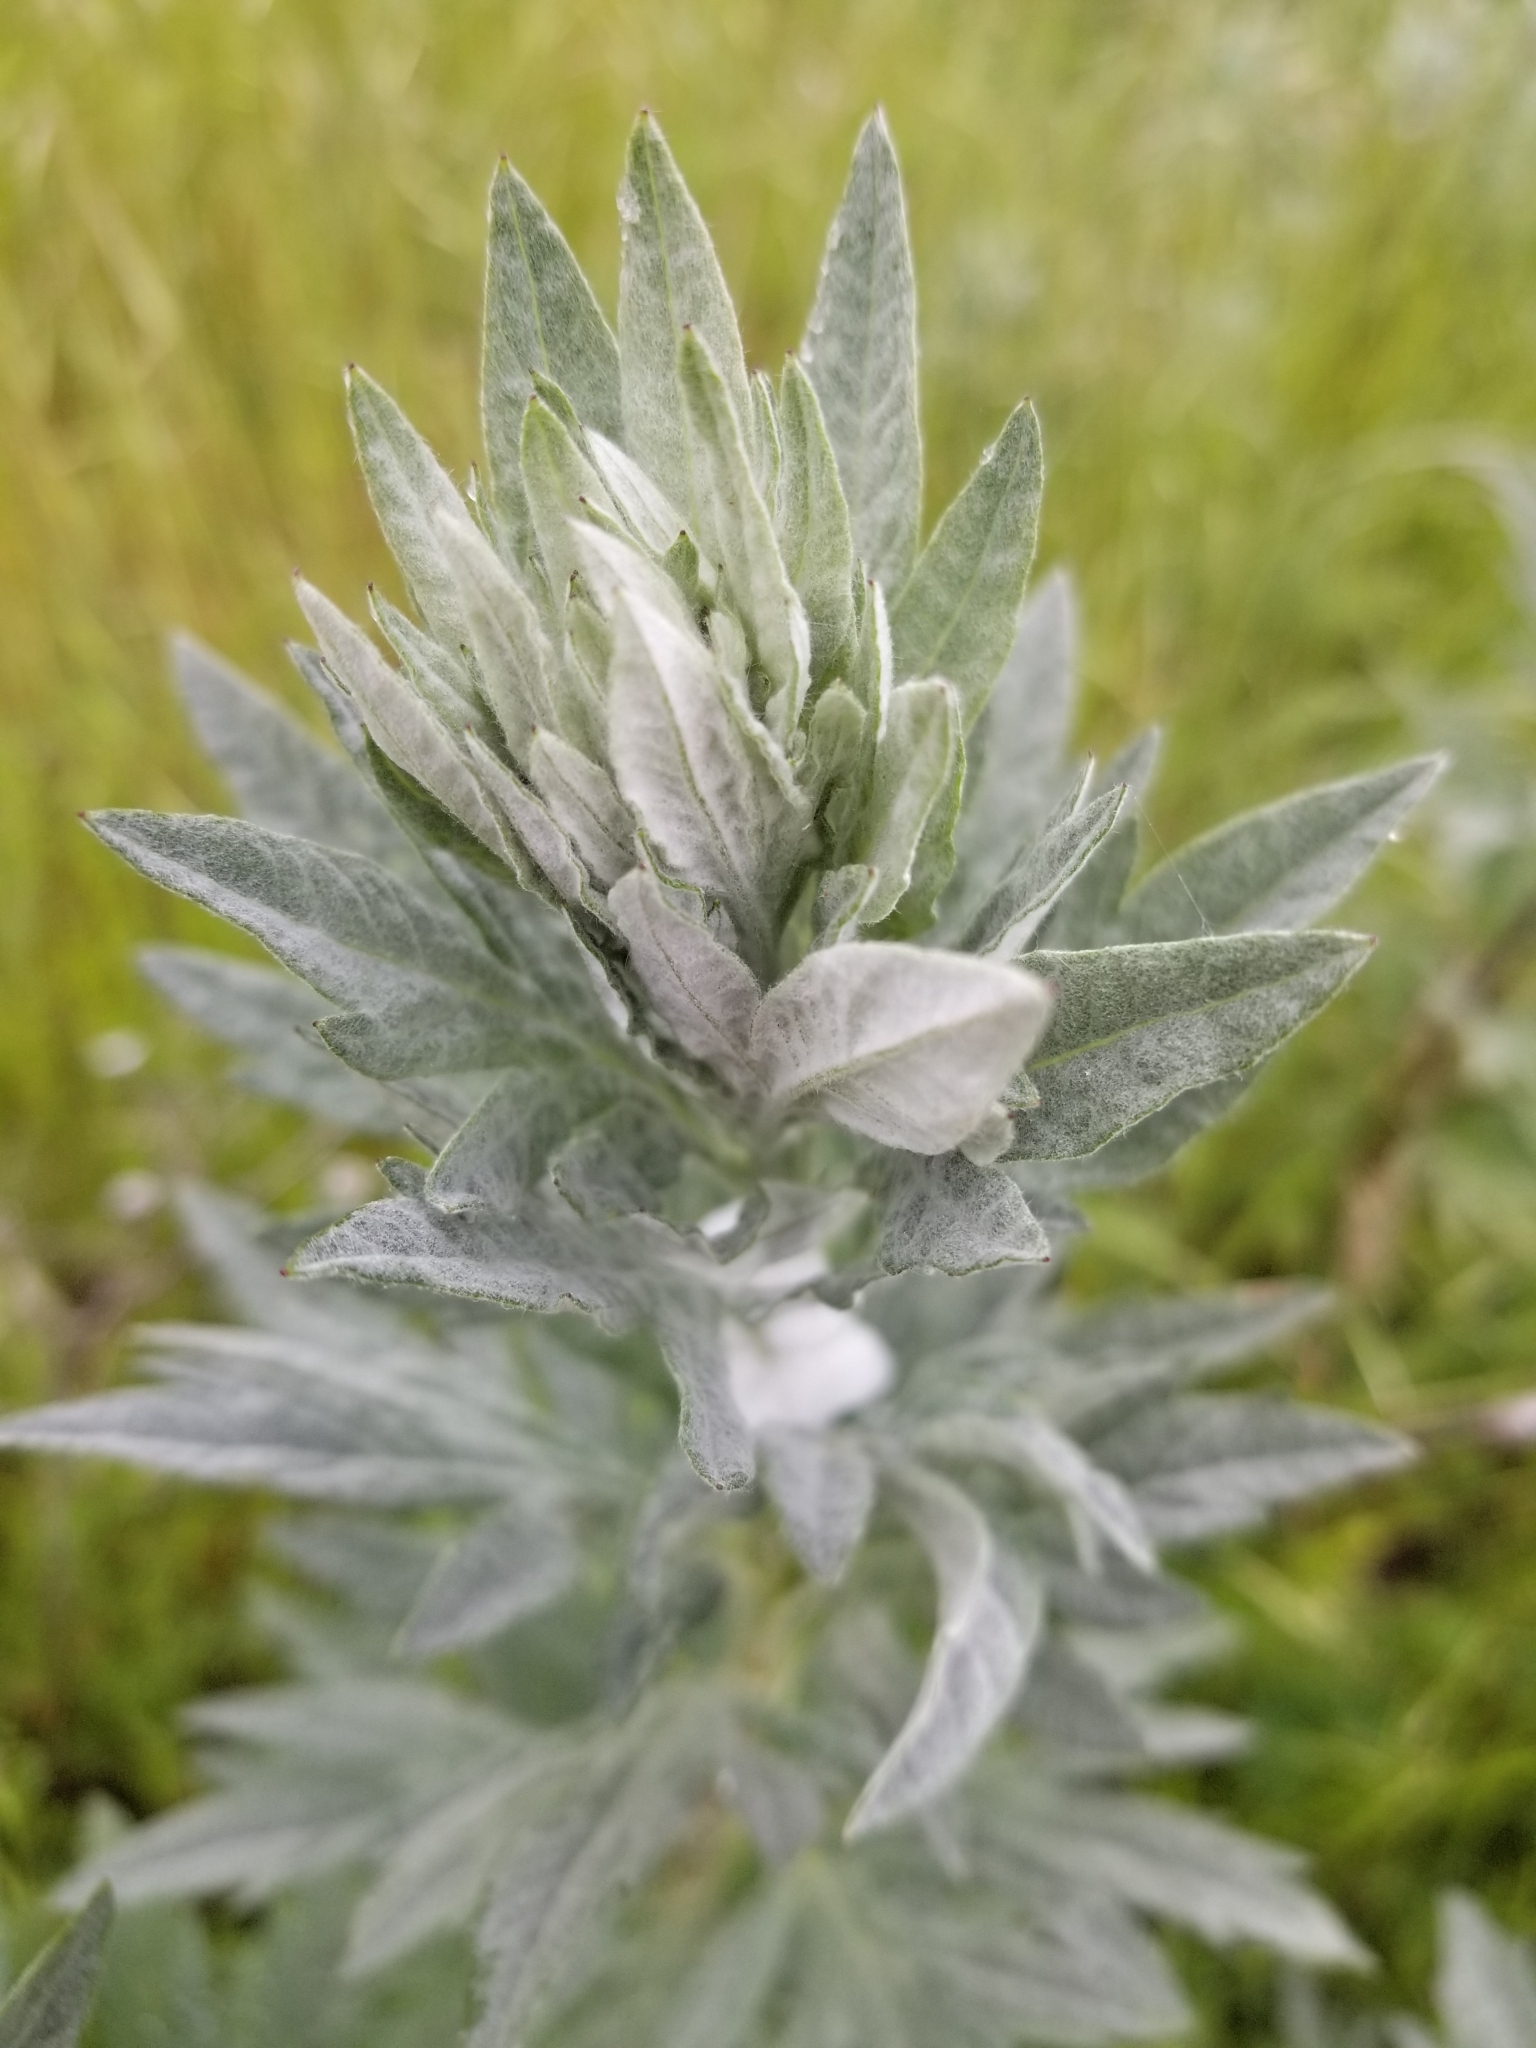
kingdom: Plantae
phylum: Tracheophyta
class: Magnoliopsida
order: Asterales
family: Asteraceae
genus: Artemisia
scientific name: Artemisia douglasiana
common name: Northwest mugwort
